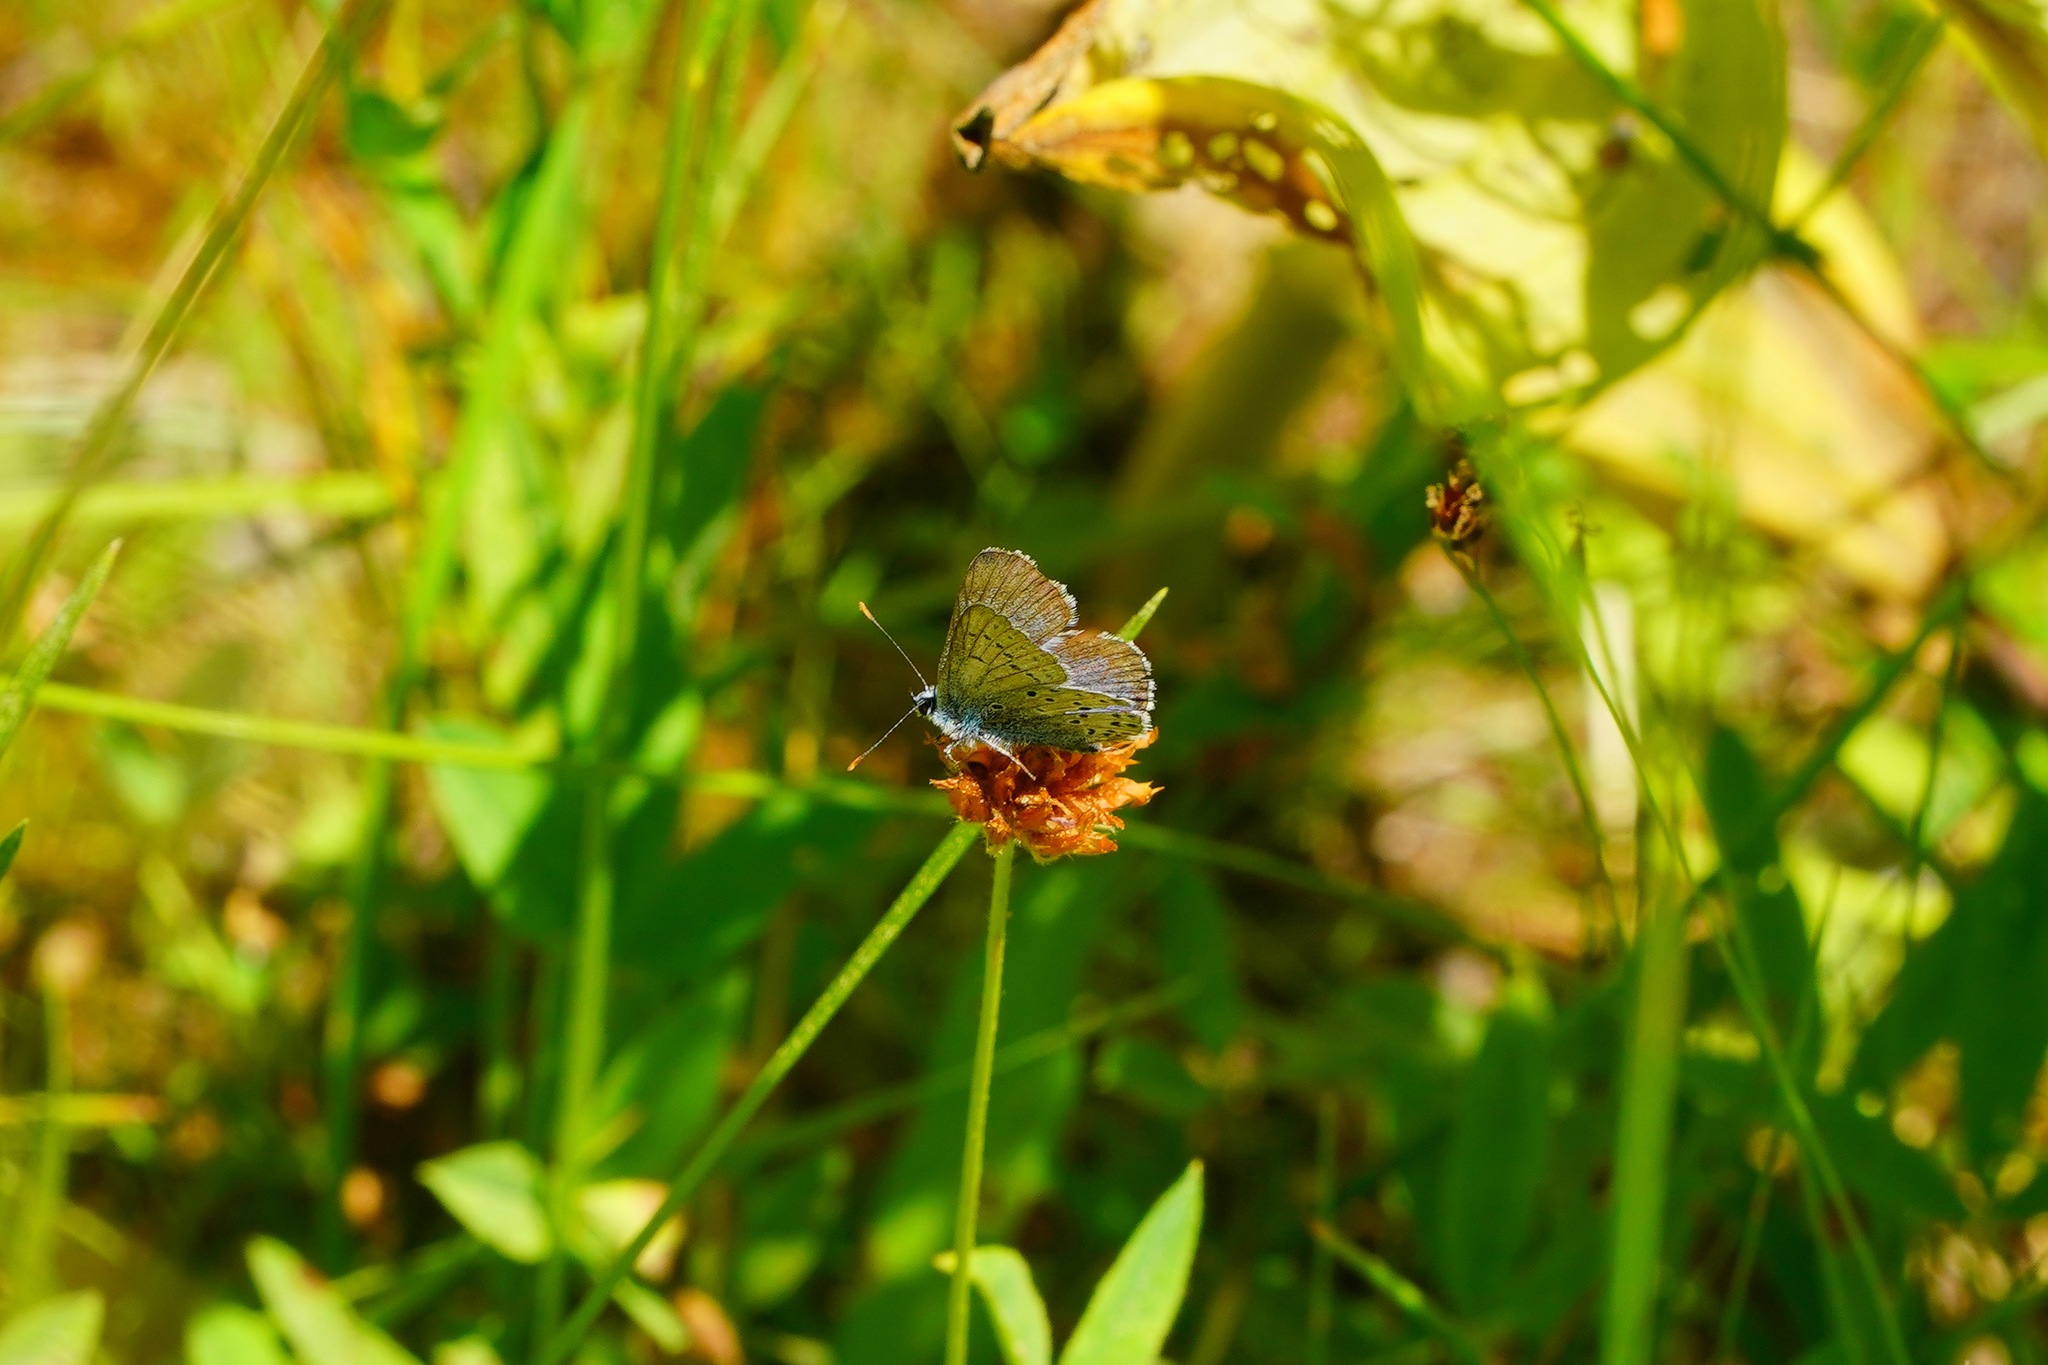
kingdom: Animalia
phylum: Arthropoda
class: Insecta
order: Lepidoptera
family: Lycaenidae
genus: Icaricia
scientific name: Icaricia saepiolus
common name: Greenish blue
